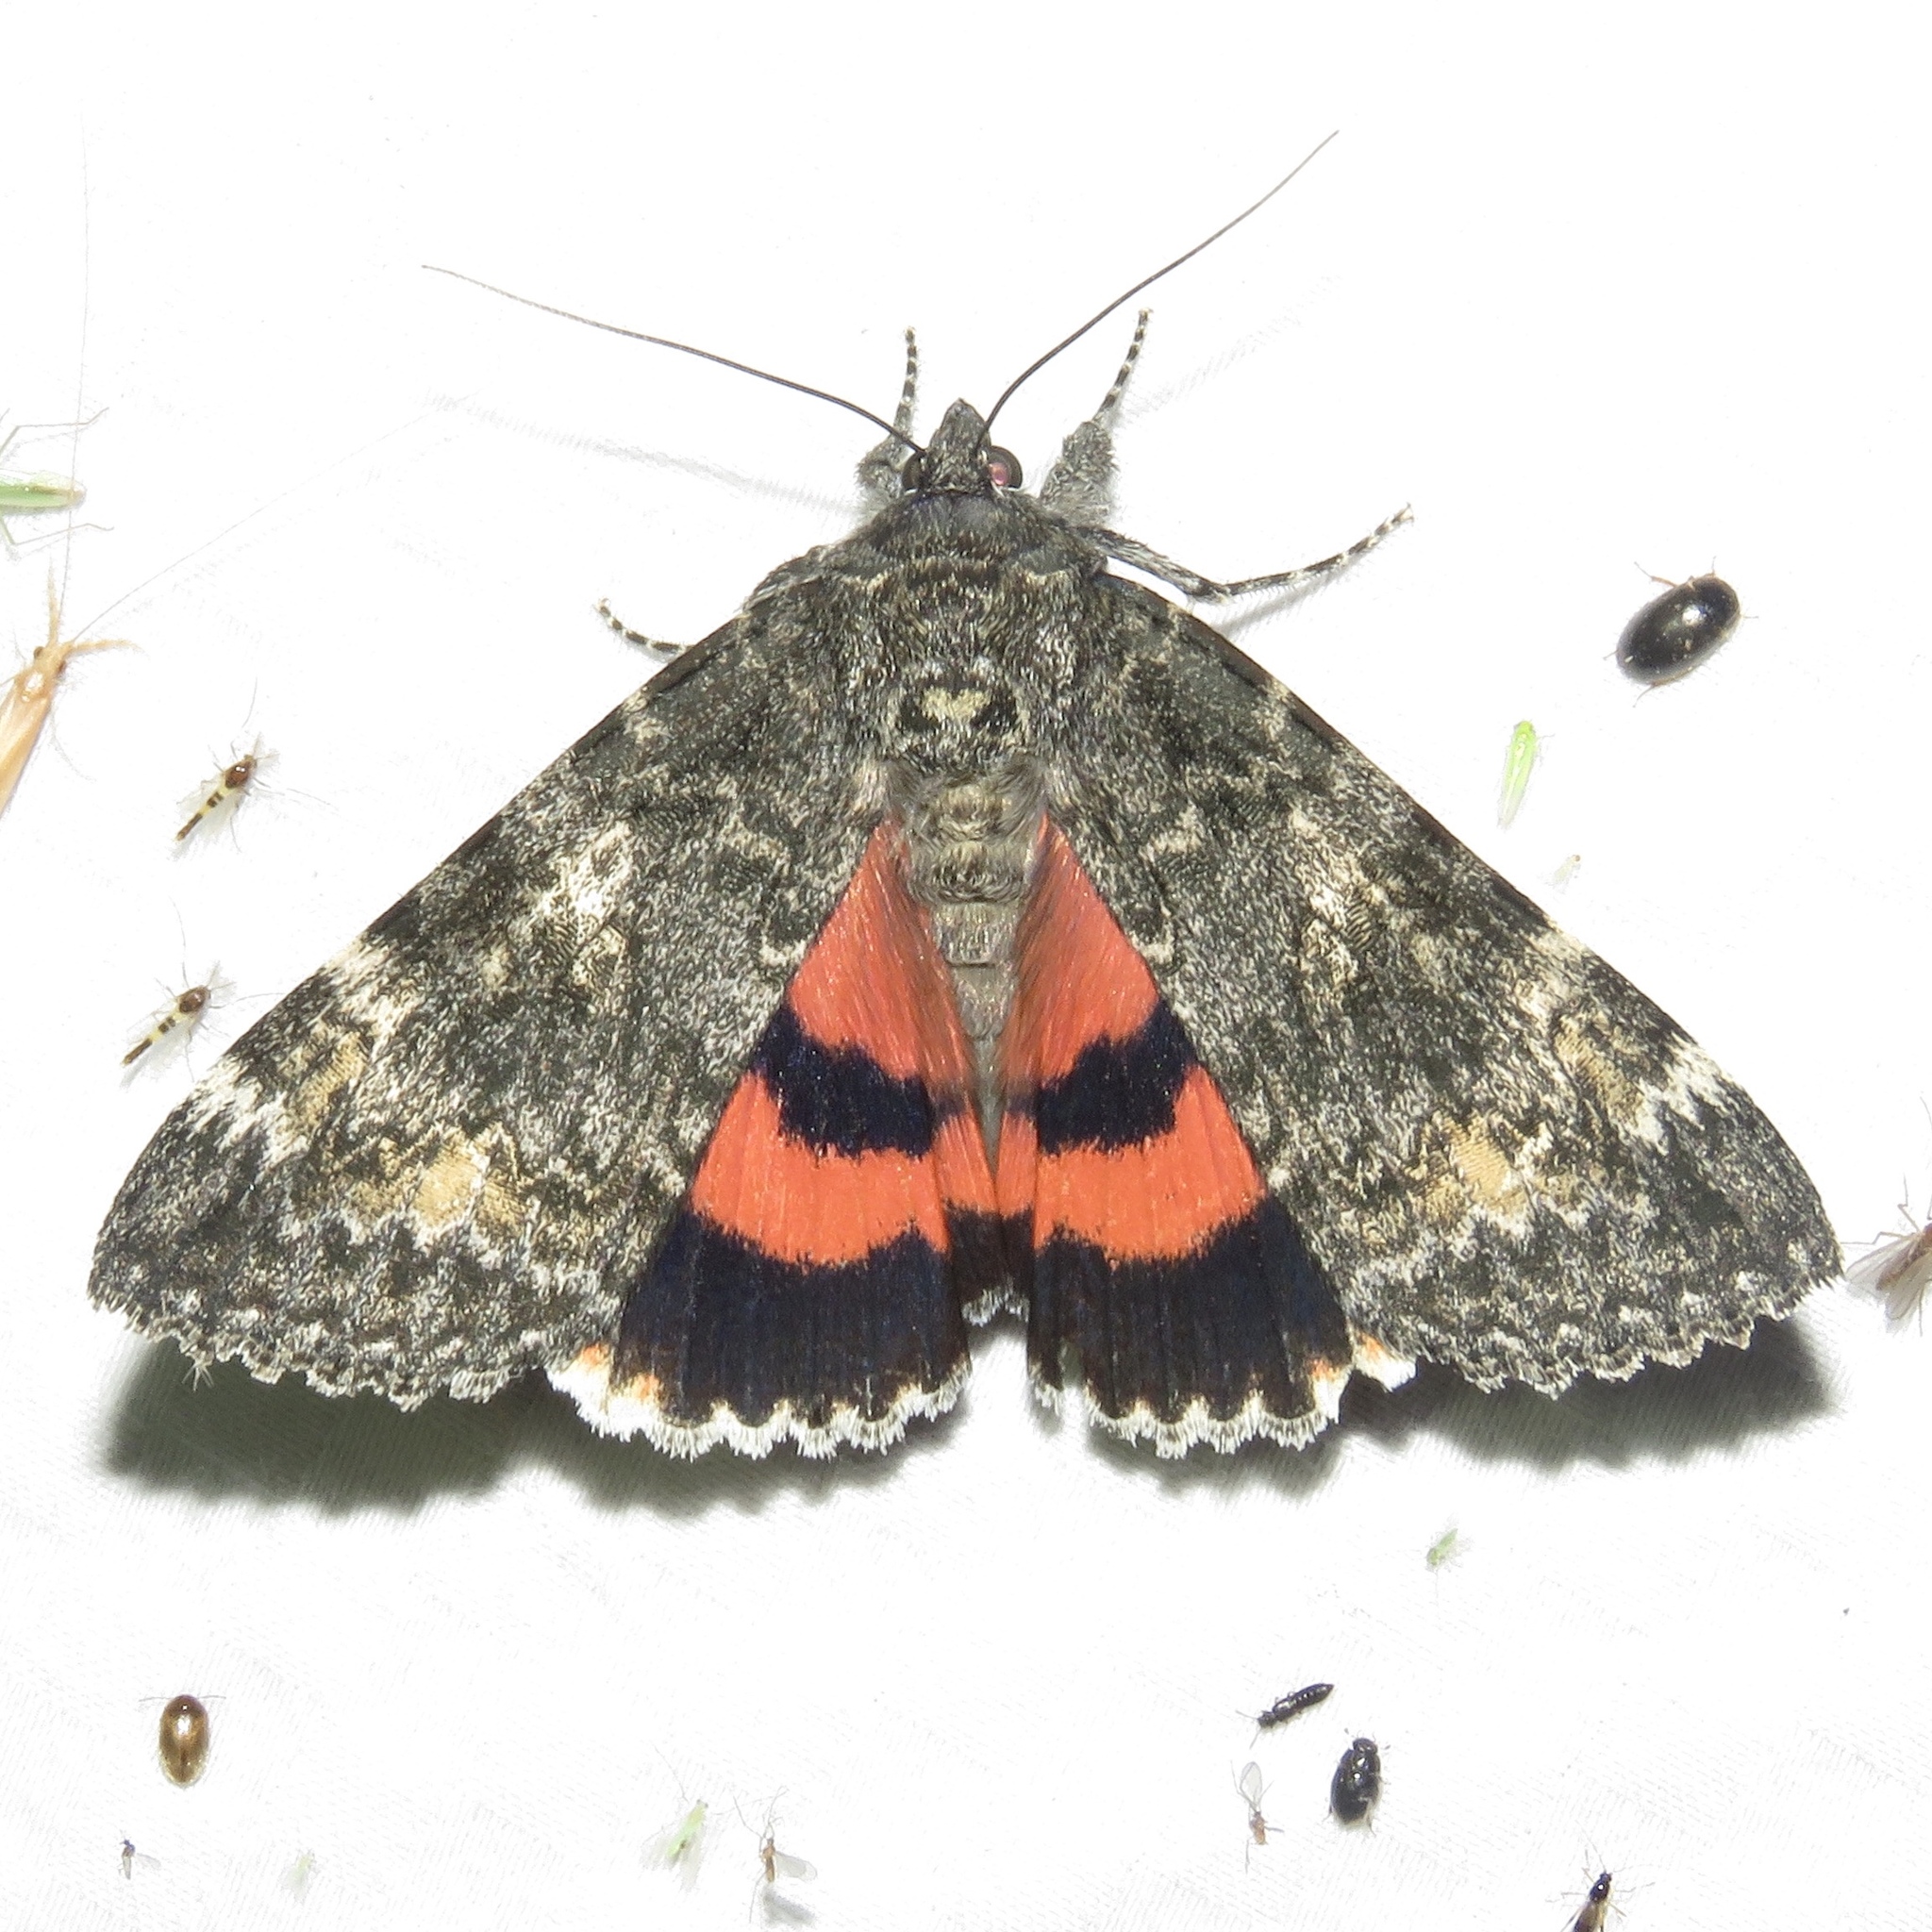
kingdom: Animalia
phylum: Arthropoda
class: Insecta
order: Lepidoptera
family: Erebidae
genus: Catocala
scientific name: Catocala briseis
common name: Briseis underwing
